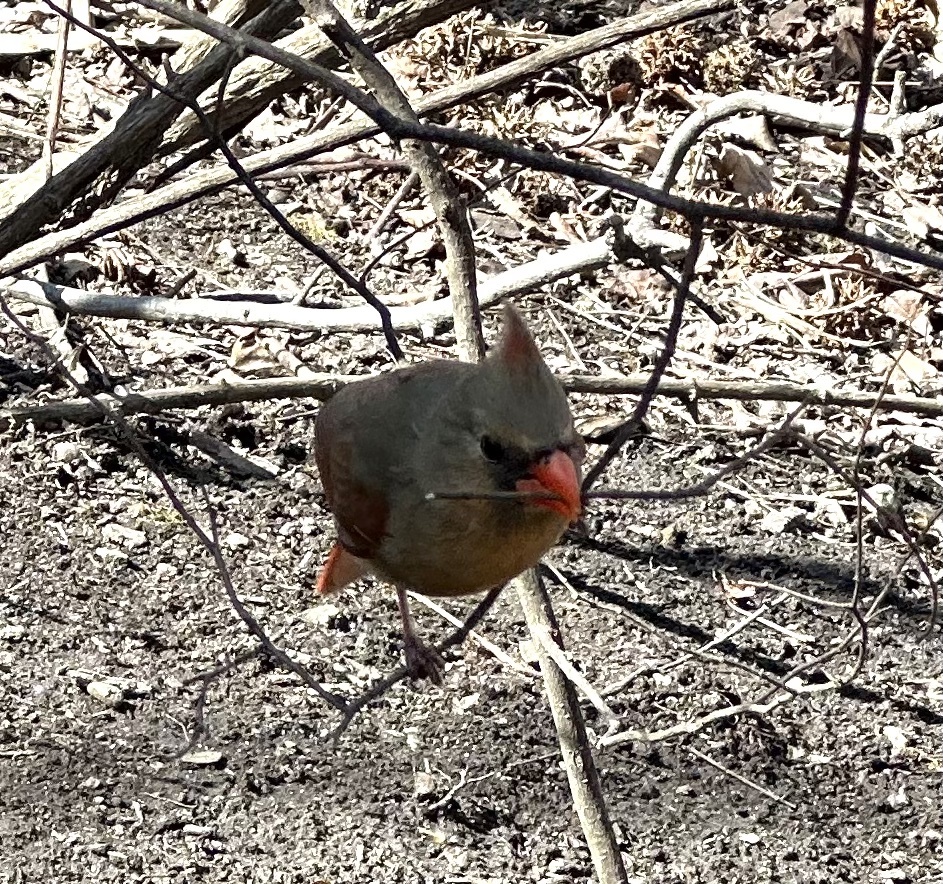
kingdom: Animalia
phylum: Chordata
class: Aves
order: Passeriformes
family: Cardinalidae
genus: Cardinalis
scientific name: Cardinalis cardinalis
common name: Northern cardinal
